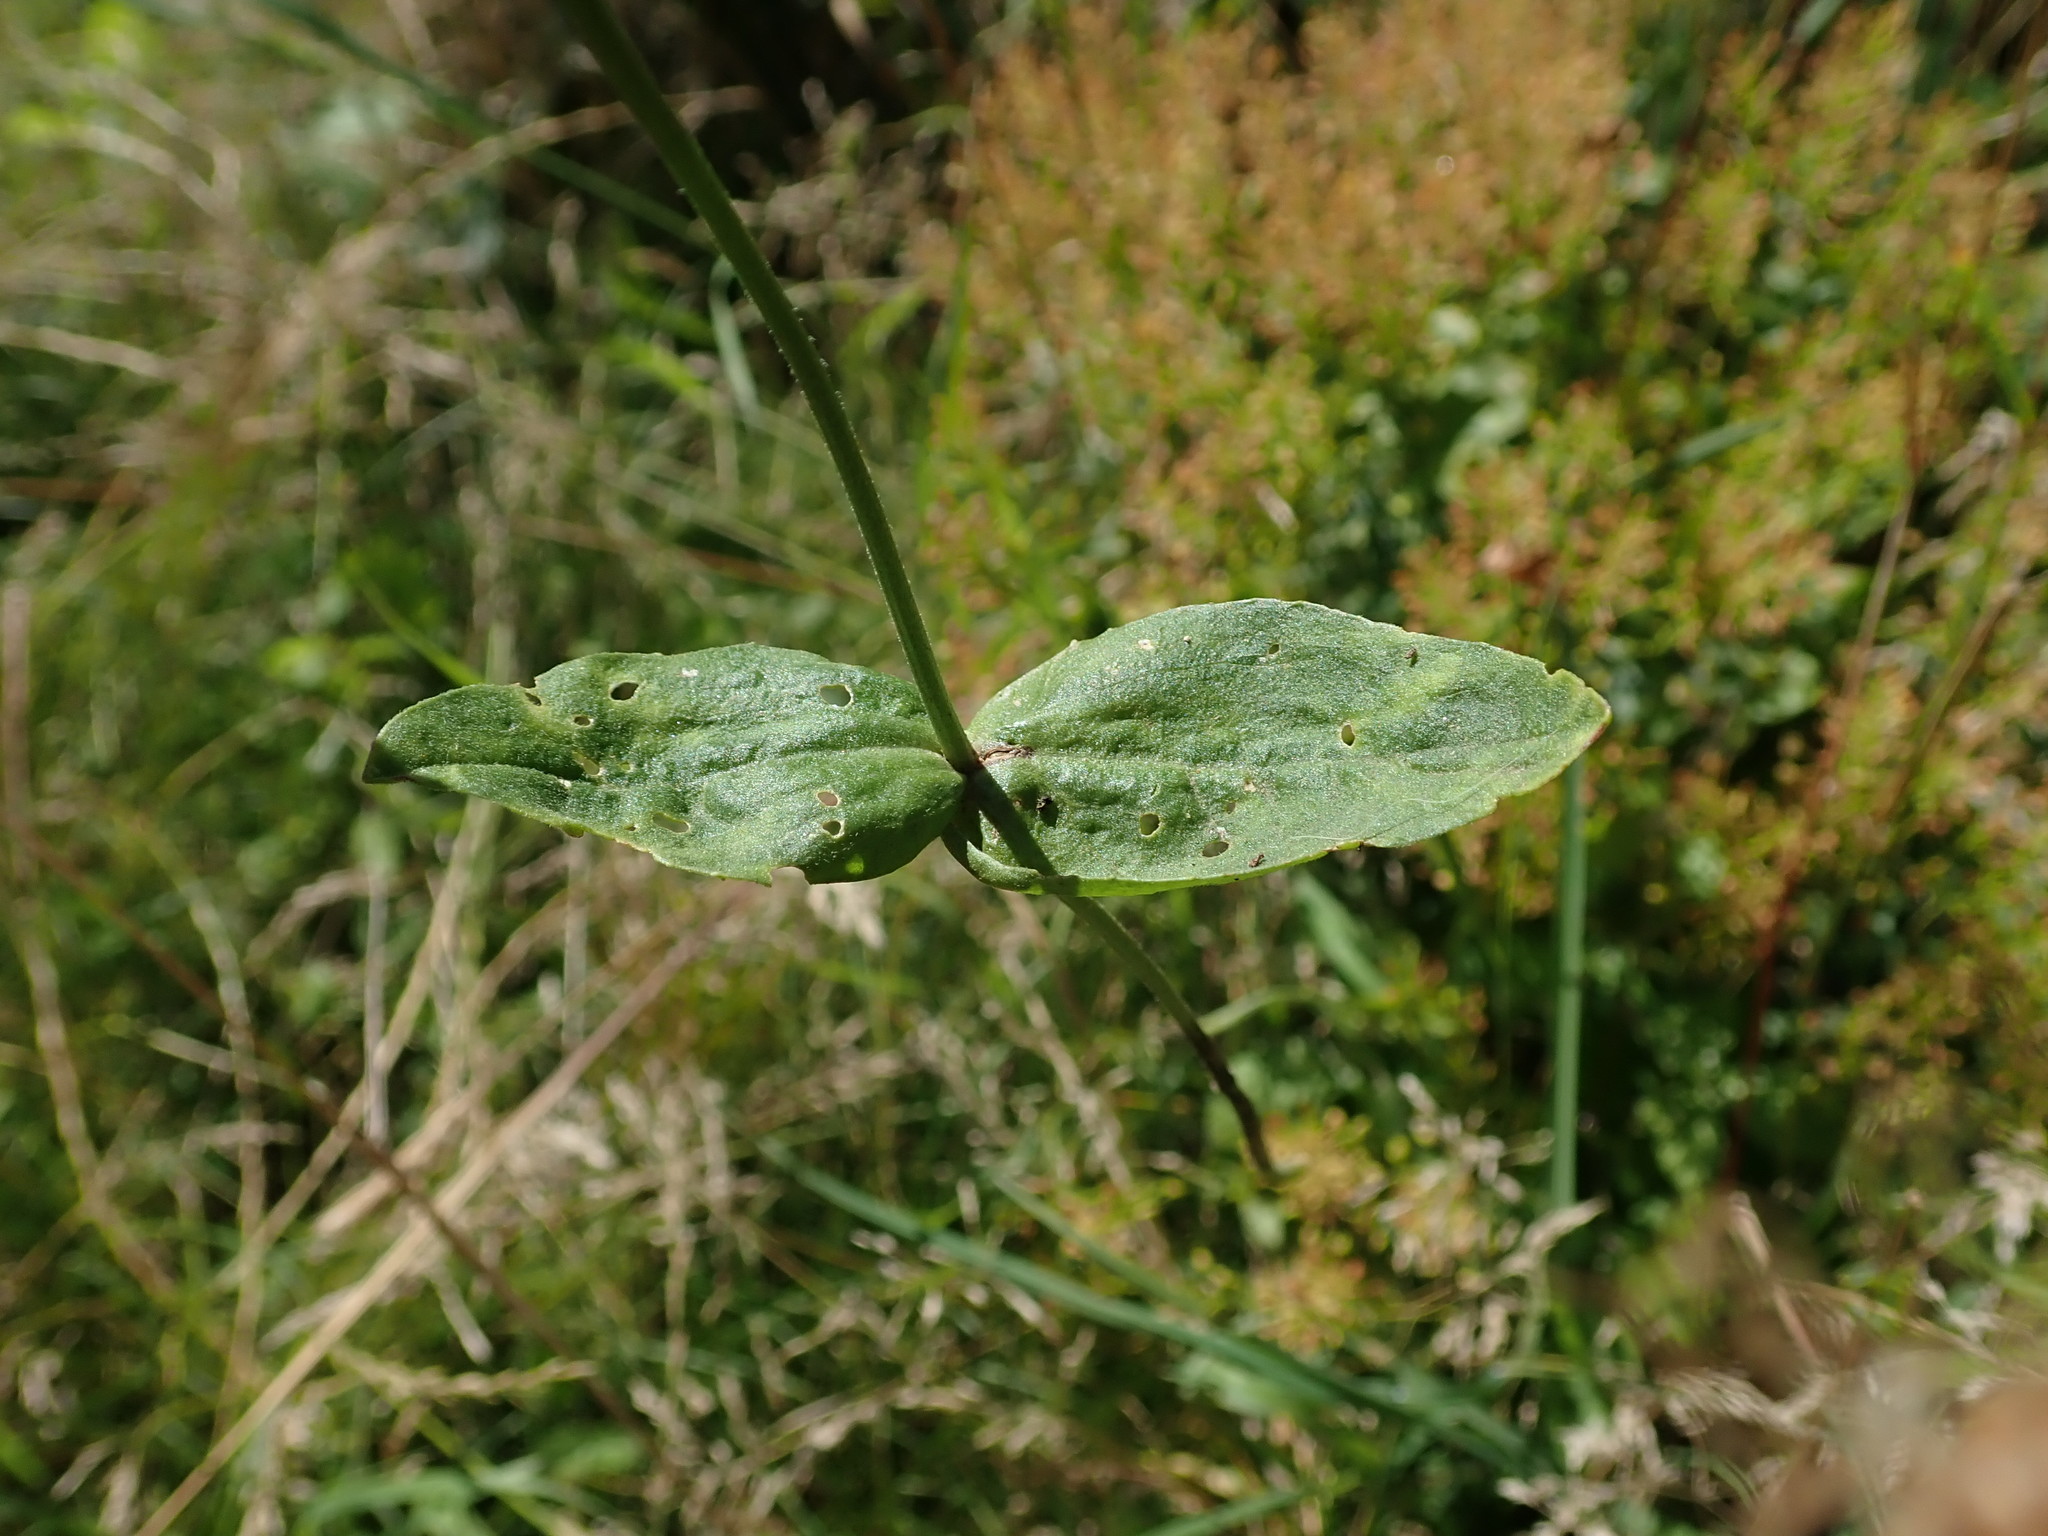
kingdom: Plantae
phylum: Tracheophyta
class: Magnoliopsida
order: Brassicales
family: Brassicaceae
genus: Lepidium
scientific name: Lepidium draba
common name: Hoary cress
